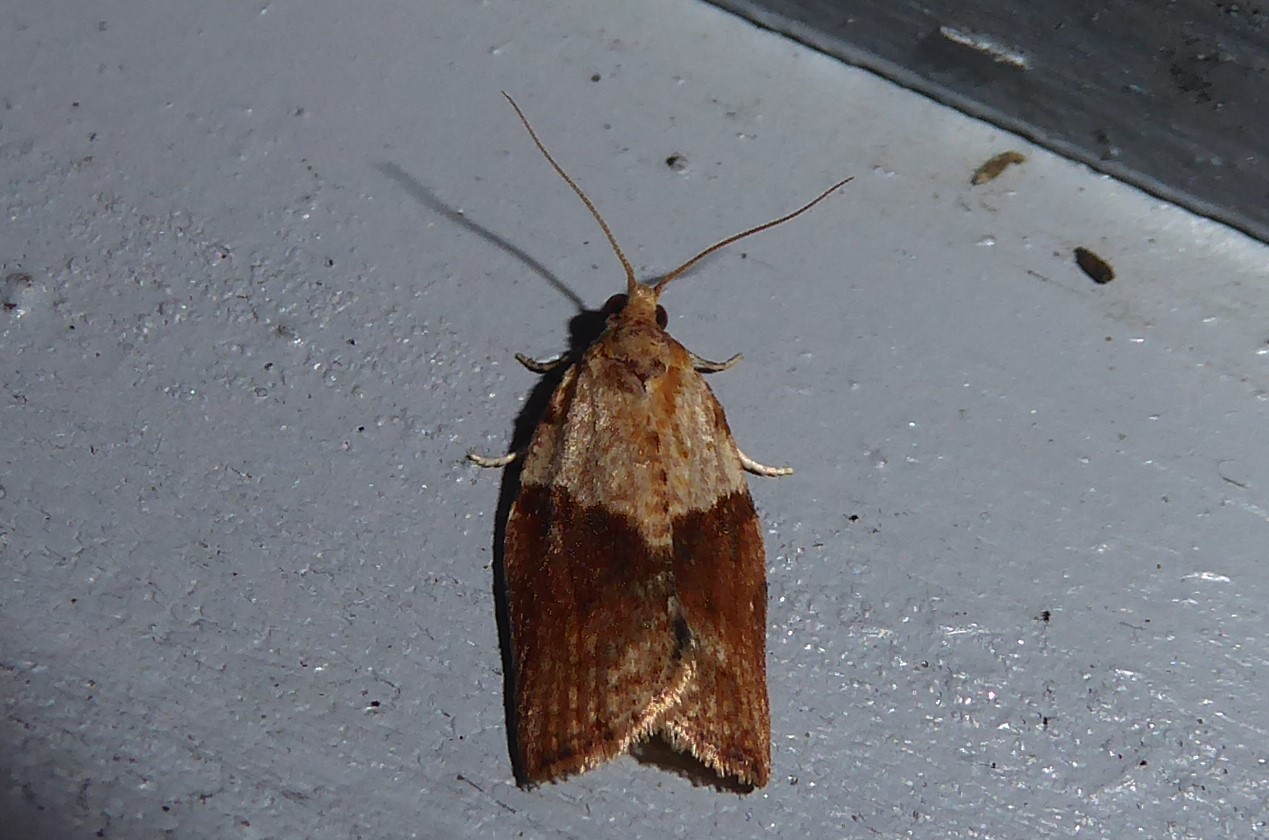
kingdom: Animalia
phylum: Arthropoda
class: Insecta
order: Lepidoptera
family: Tortricidae
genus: Epiphyas
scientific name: Epiphyas postvittana
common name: Light brown apple moth
